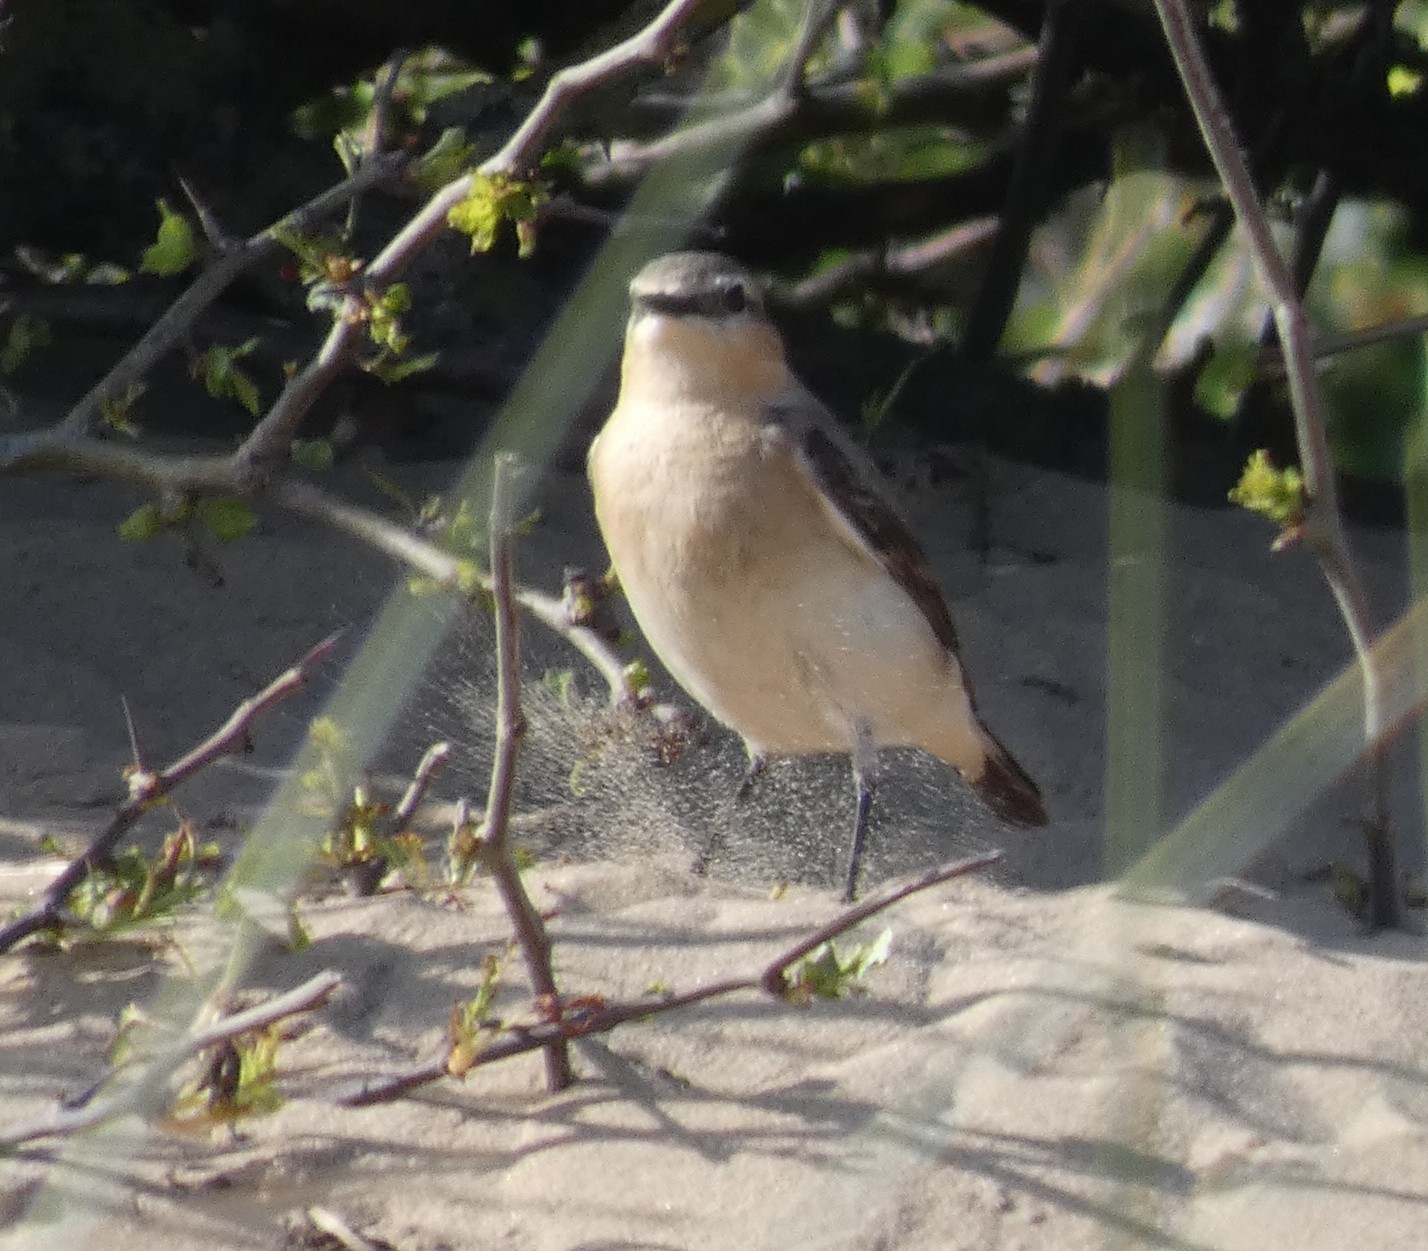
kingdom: Animalia
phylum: Chordata
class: Aves
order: Passeriformes
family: Muscicapidae
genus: Oenanthe
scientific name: Oenanthe oenanthe
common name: Northern wheatear
